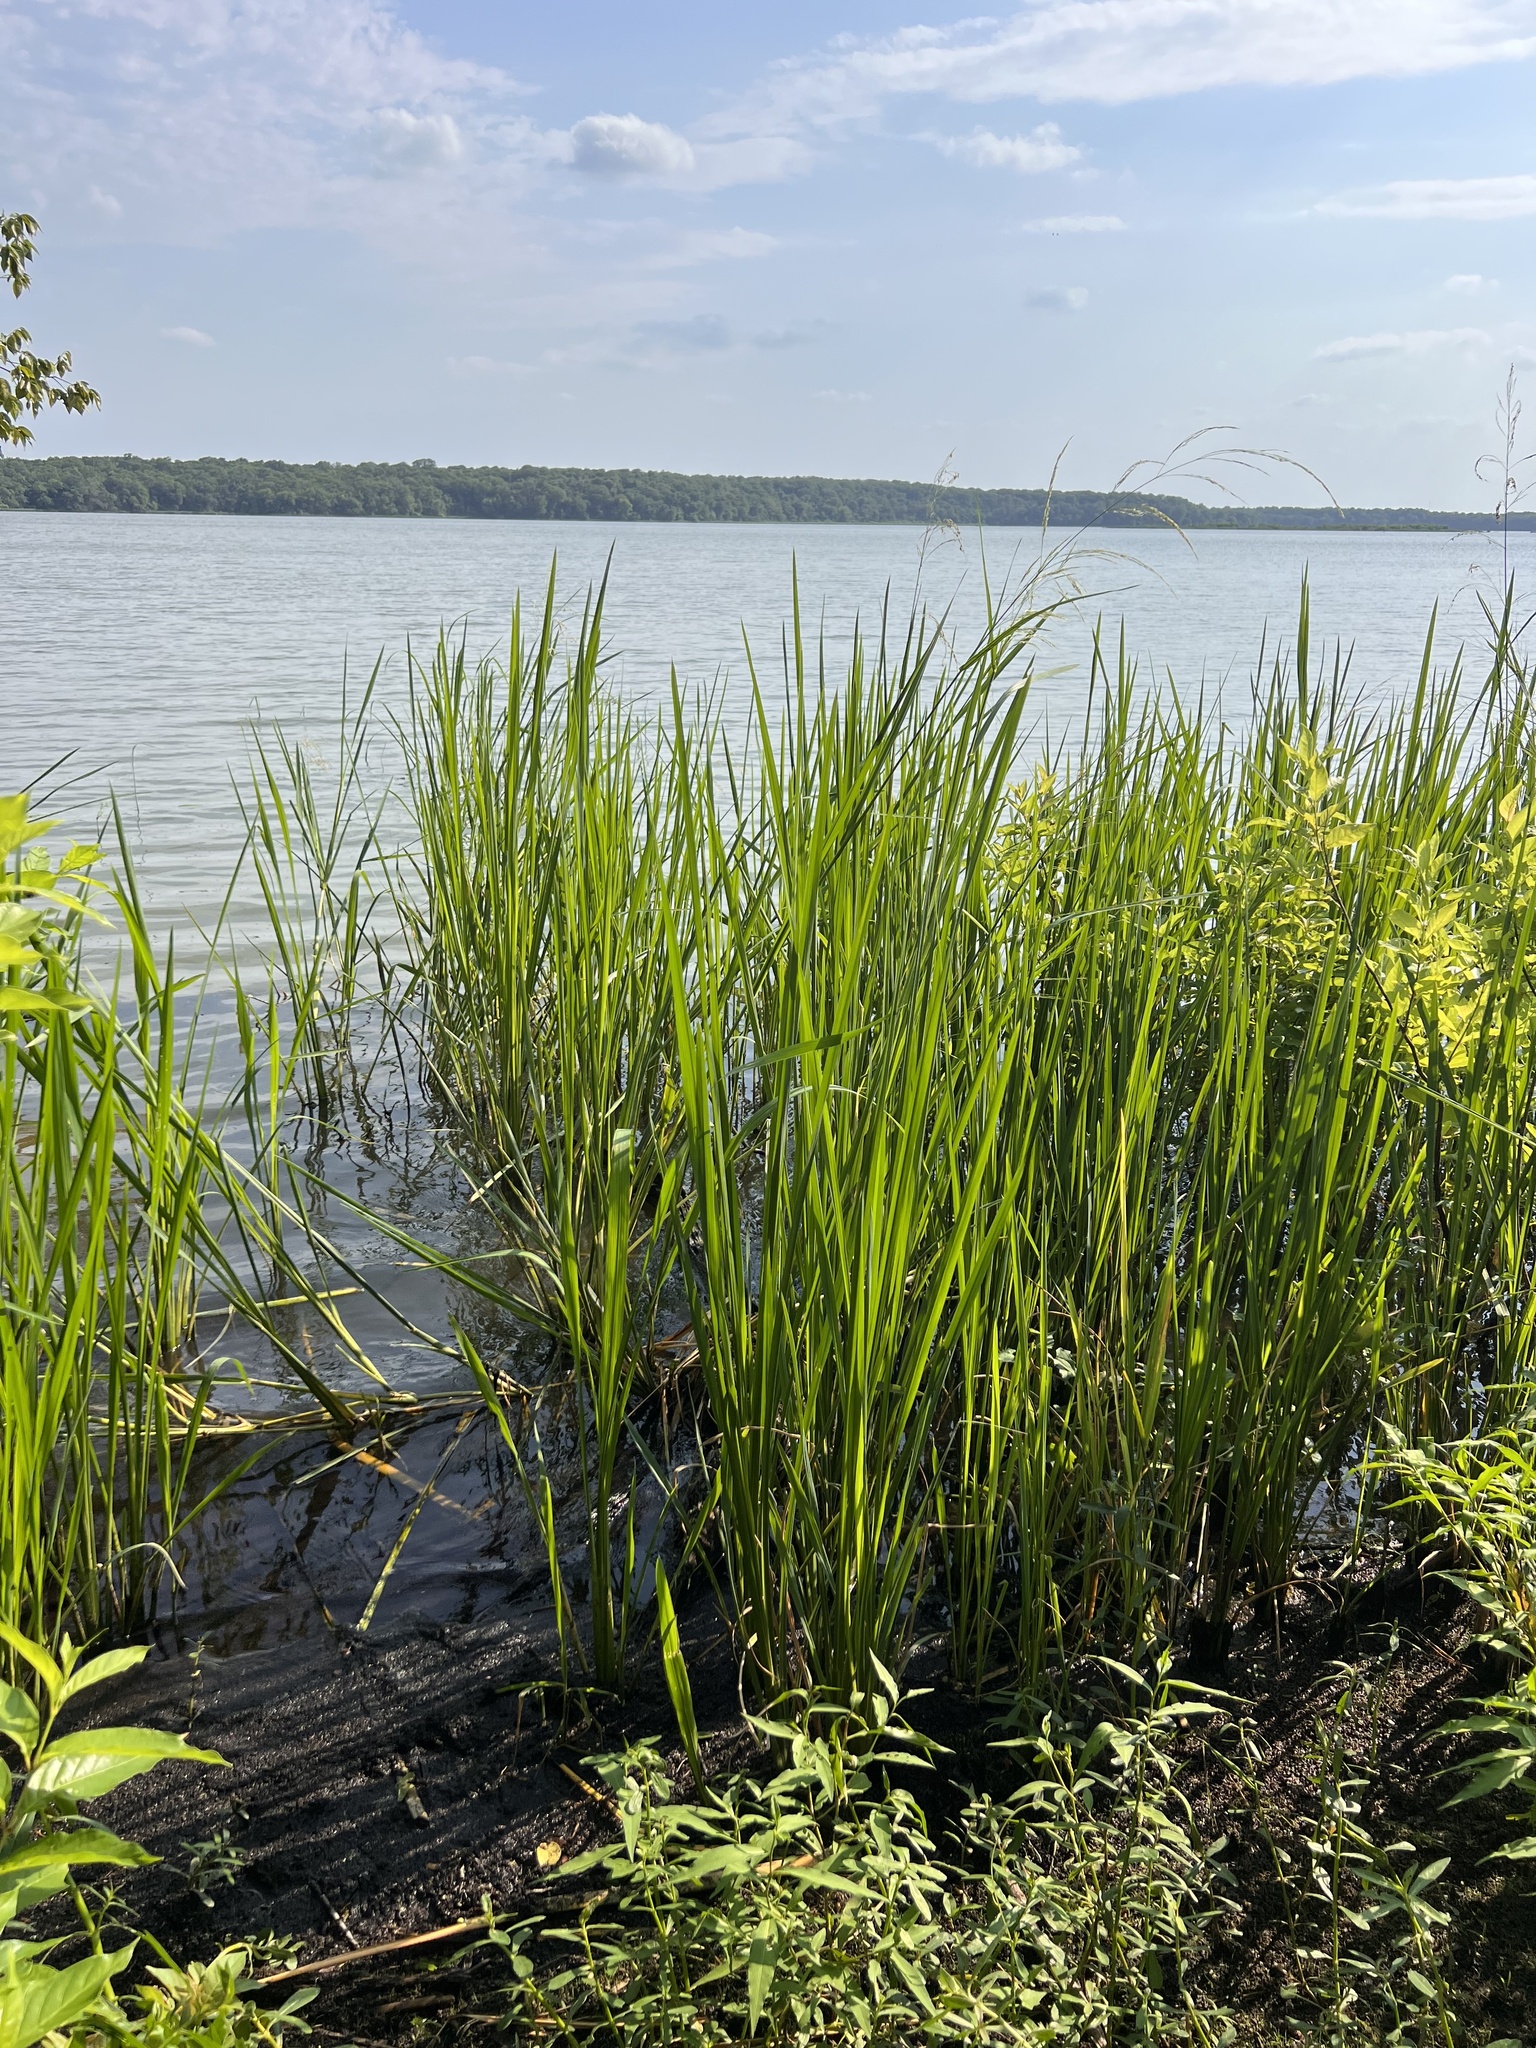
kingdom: Plantae
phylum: Tracheophyta
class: Liliopsida
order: Poales
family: Poaceae
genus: Zizaniopsis
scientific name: Zizaniopsis miliacea
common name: Giant-cutgrass
